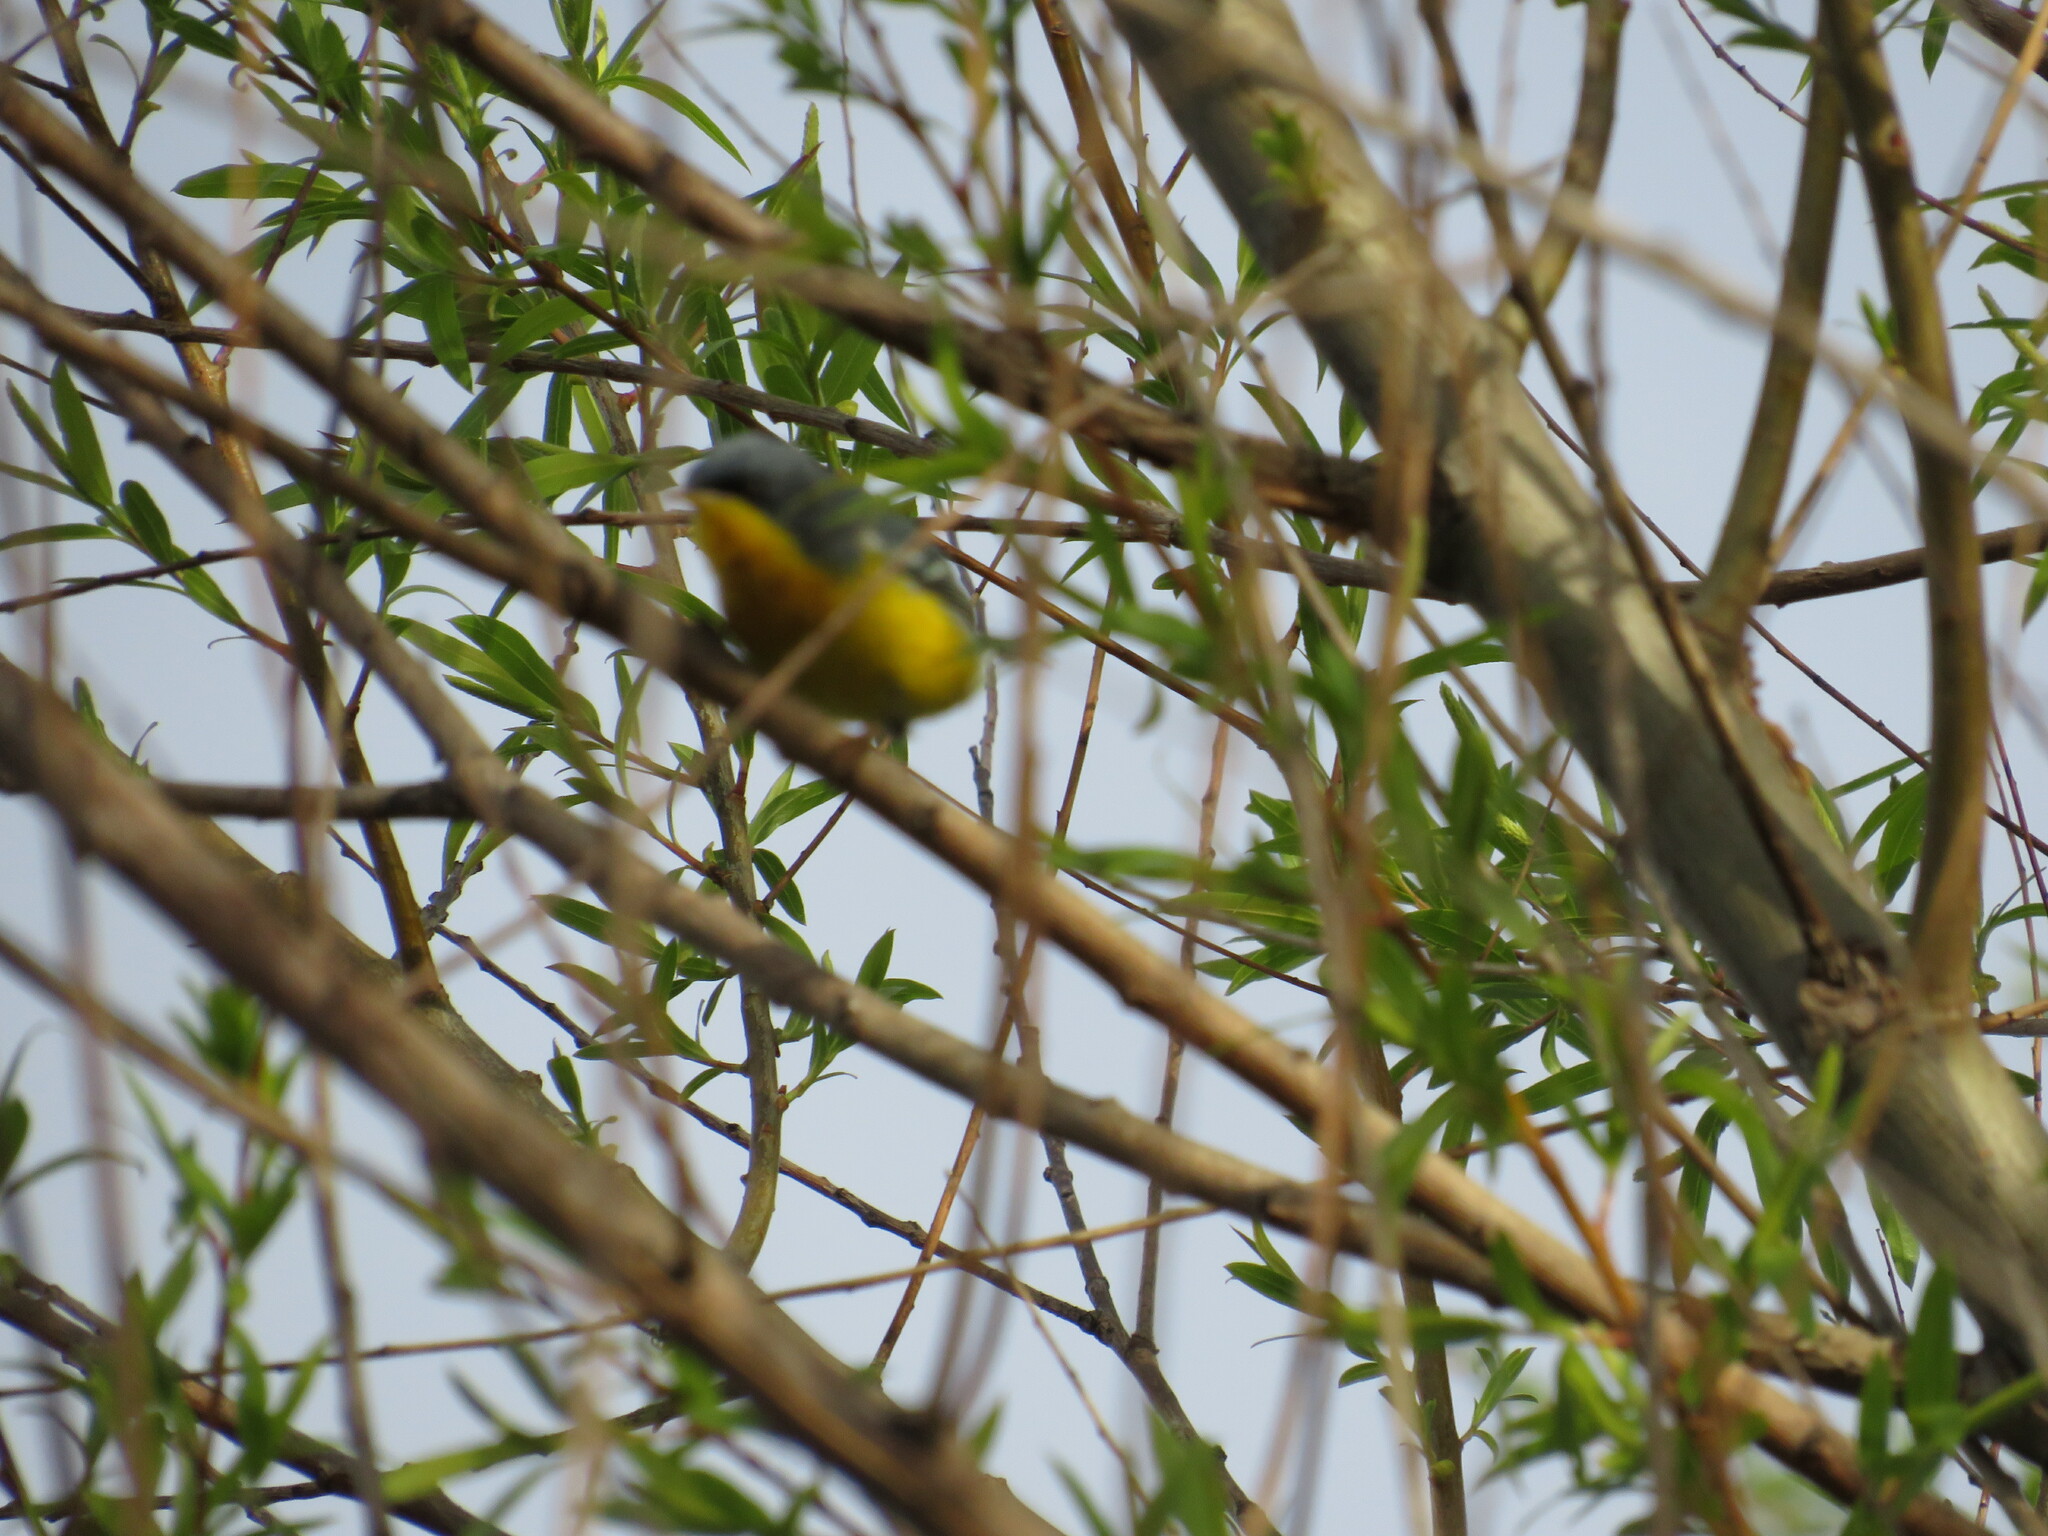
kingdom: Animalia
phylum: Chordata
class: Aves
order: Passeriformes
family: Parulidae
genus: Setophaga
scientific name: Setophaga pitiayumi
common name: Tropical parula
